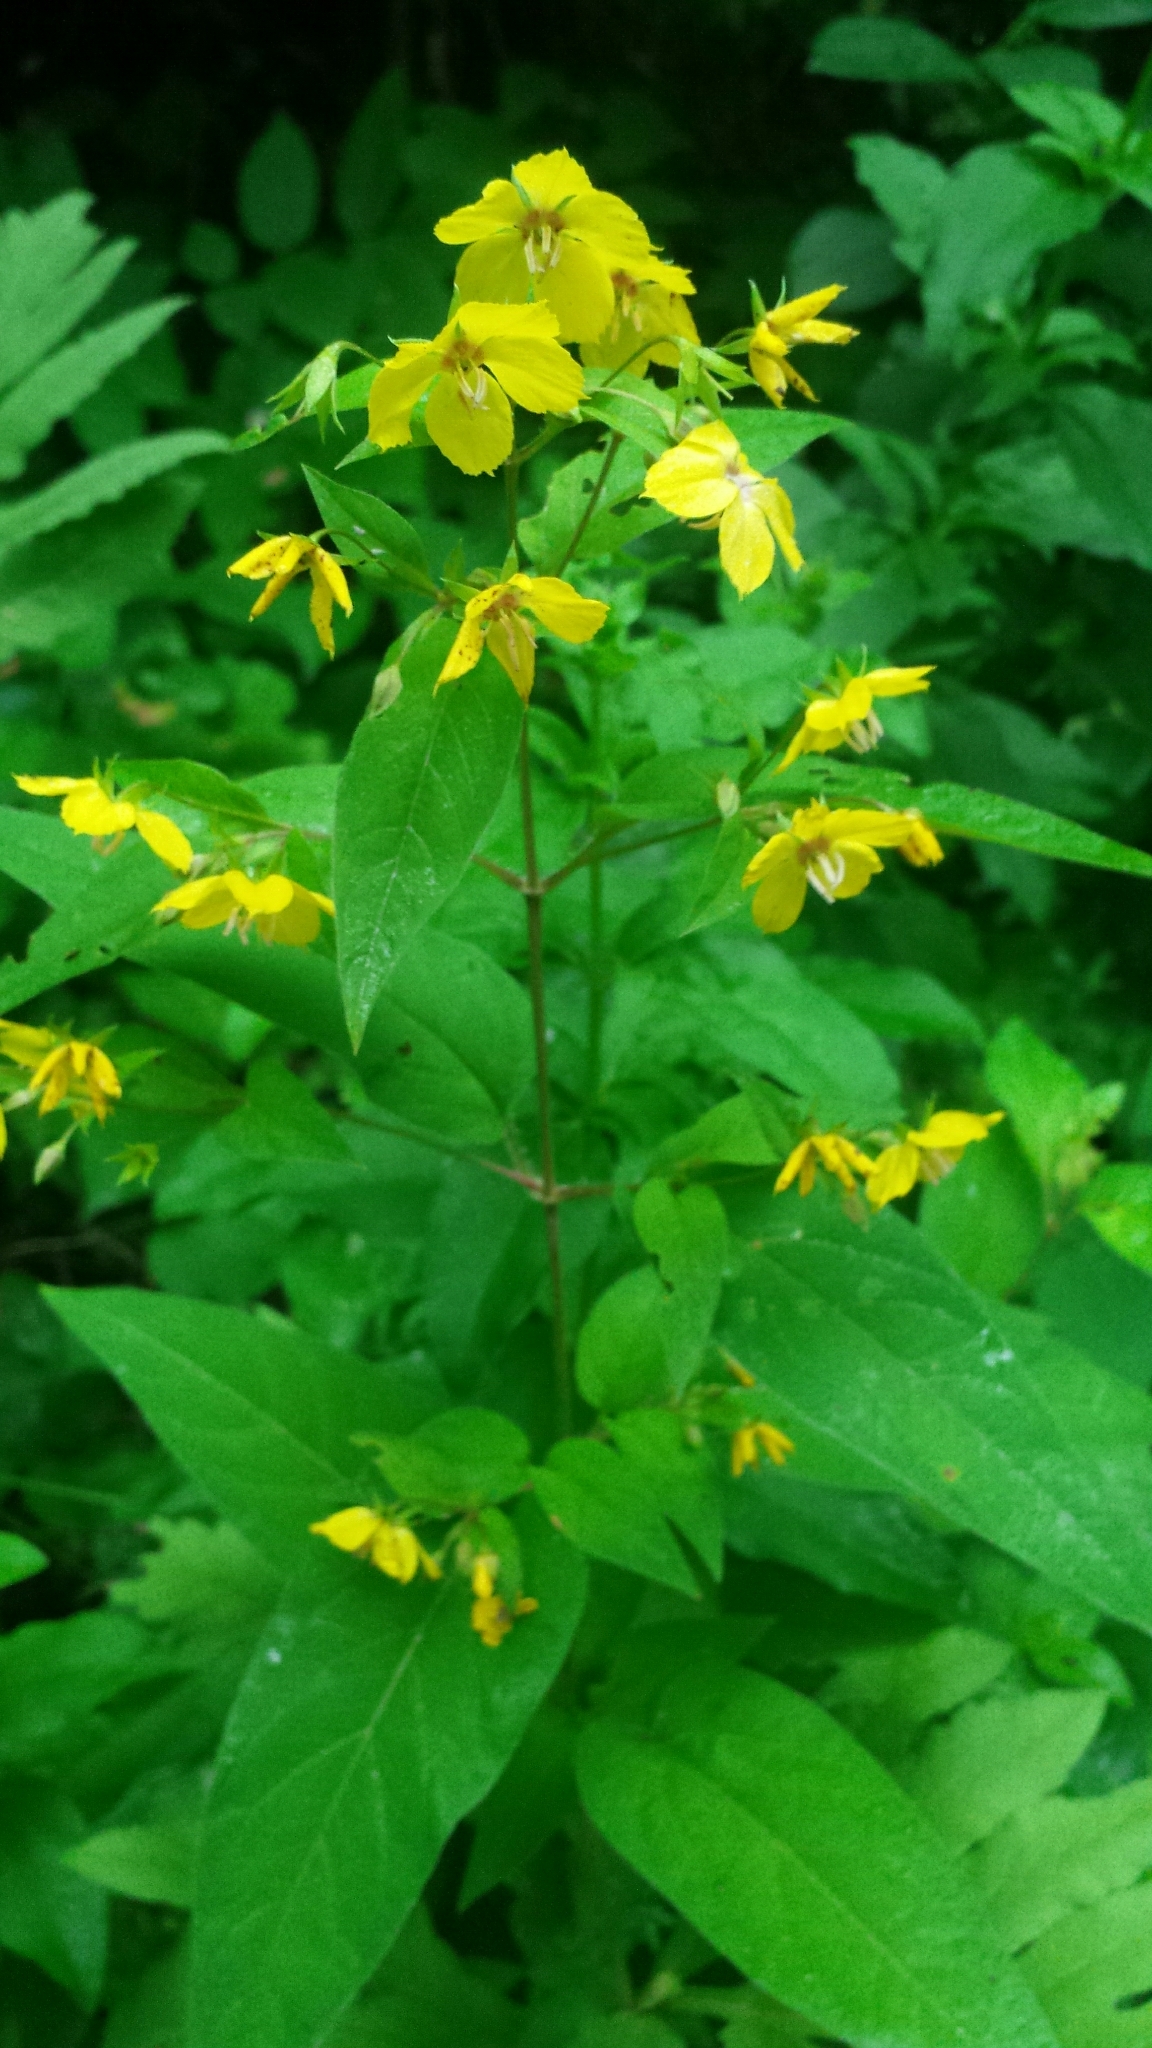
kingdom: Plantae
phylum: Tracheophyta
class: Magnoliopsida
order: Ericales
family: Primulaceae
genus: Lysimachia
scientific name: Lysimachia ciliata
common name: Fringed loosestrife
